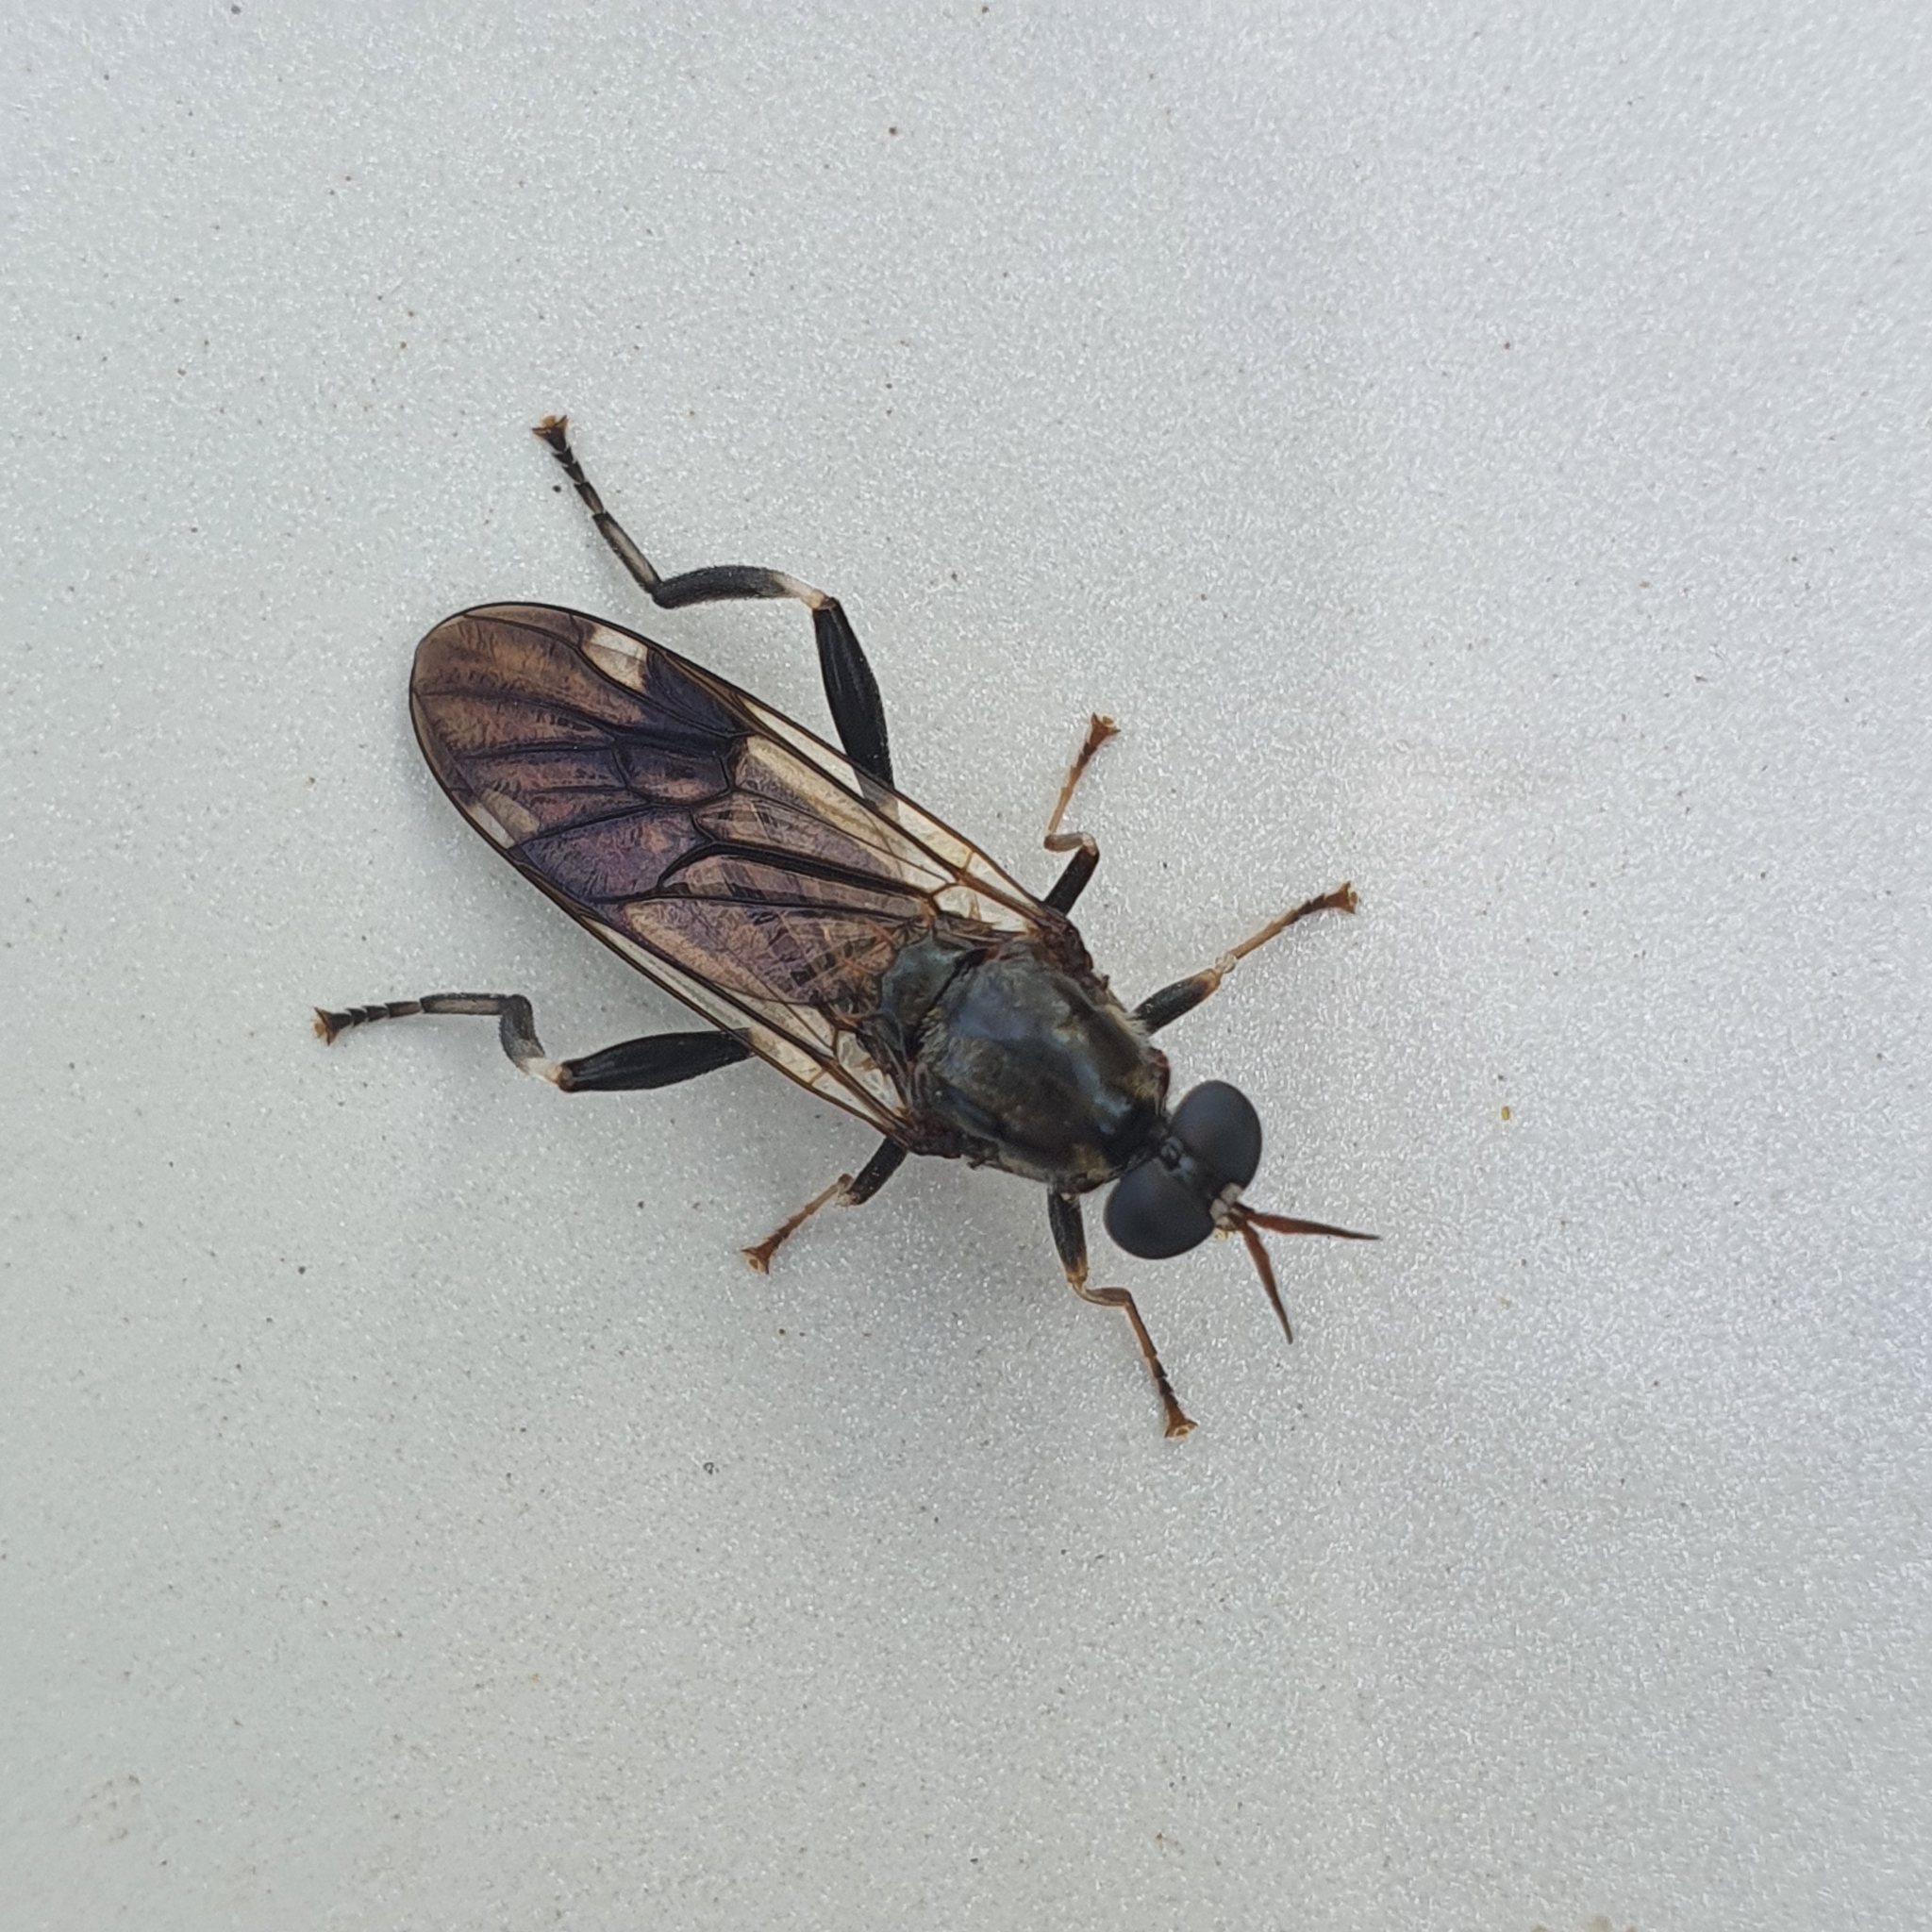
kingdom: Animalia
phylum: Arthropoda
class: Insecta
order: Diptera
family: Stratiomyidae
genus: Exaireta
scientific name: Exaireta spinigera
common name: Blue soldier fly
